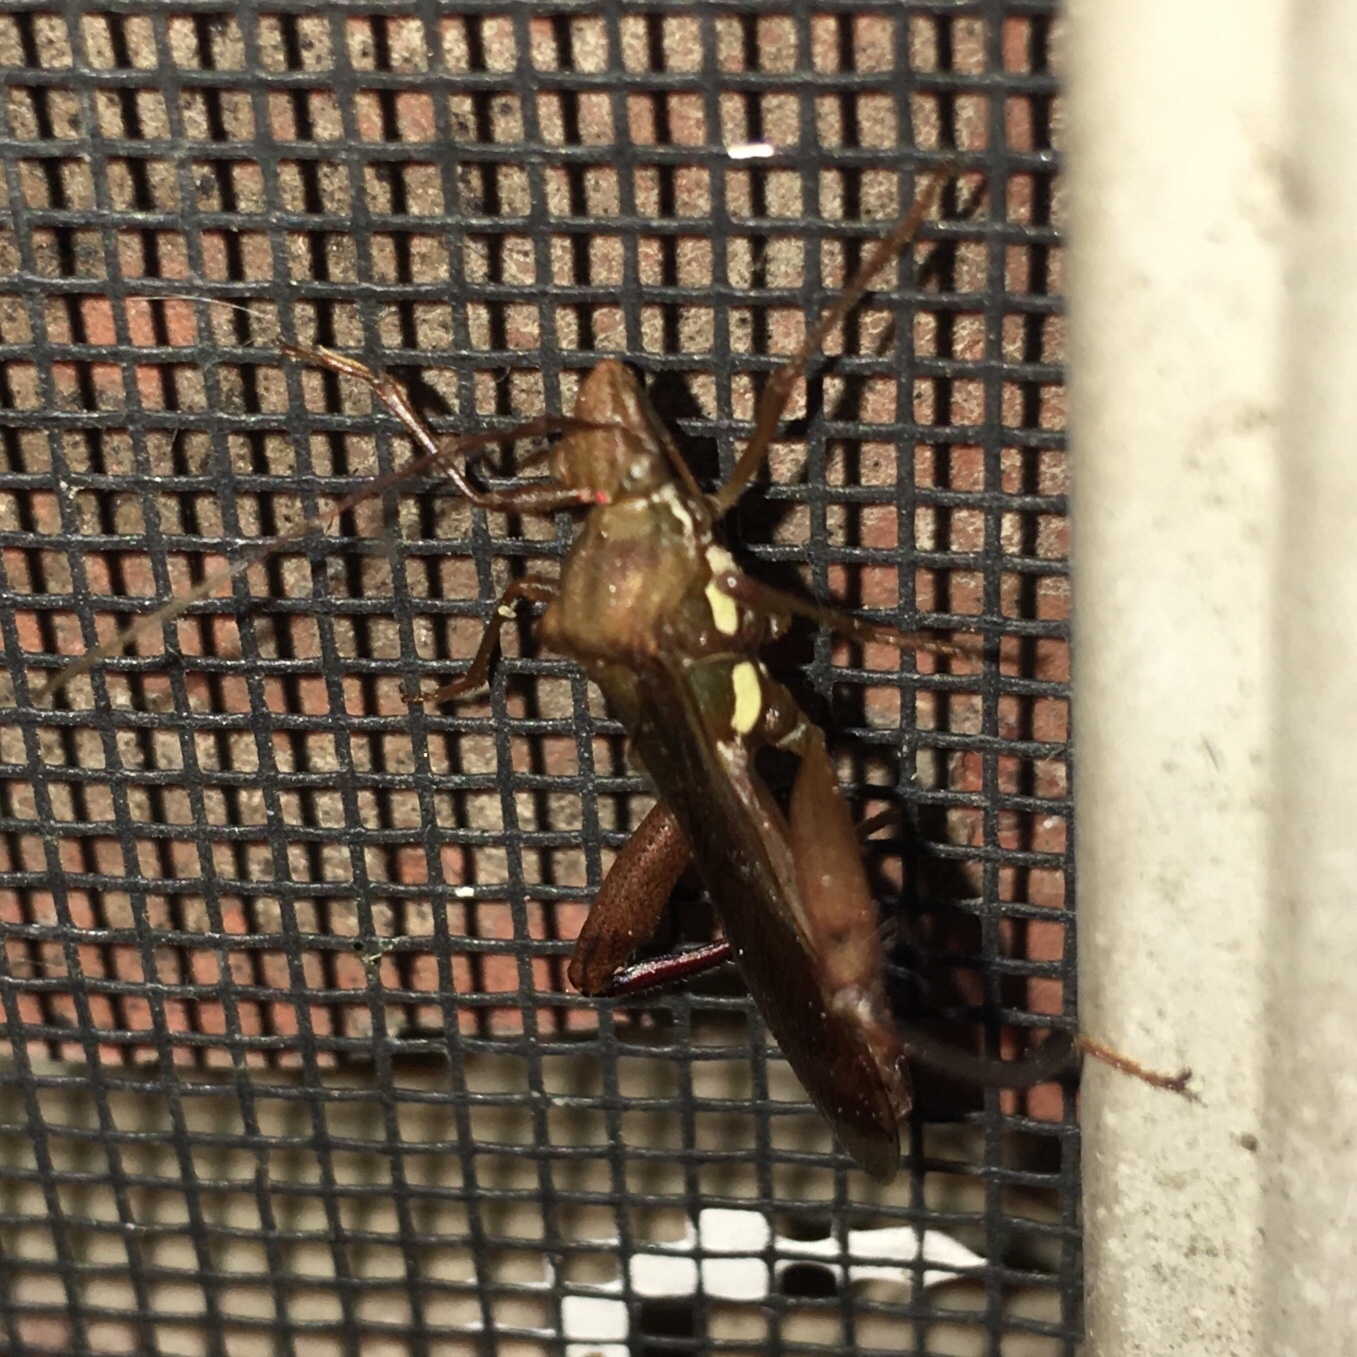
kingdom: Animalia
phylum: Arthropoda
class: Insecta
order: Hemiptera
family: Alydidae
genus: Hyalymenus
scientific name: Hyalymenus tarsatus
